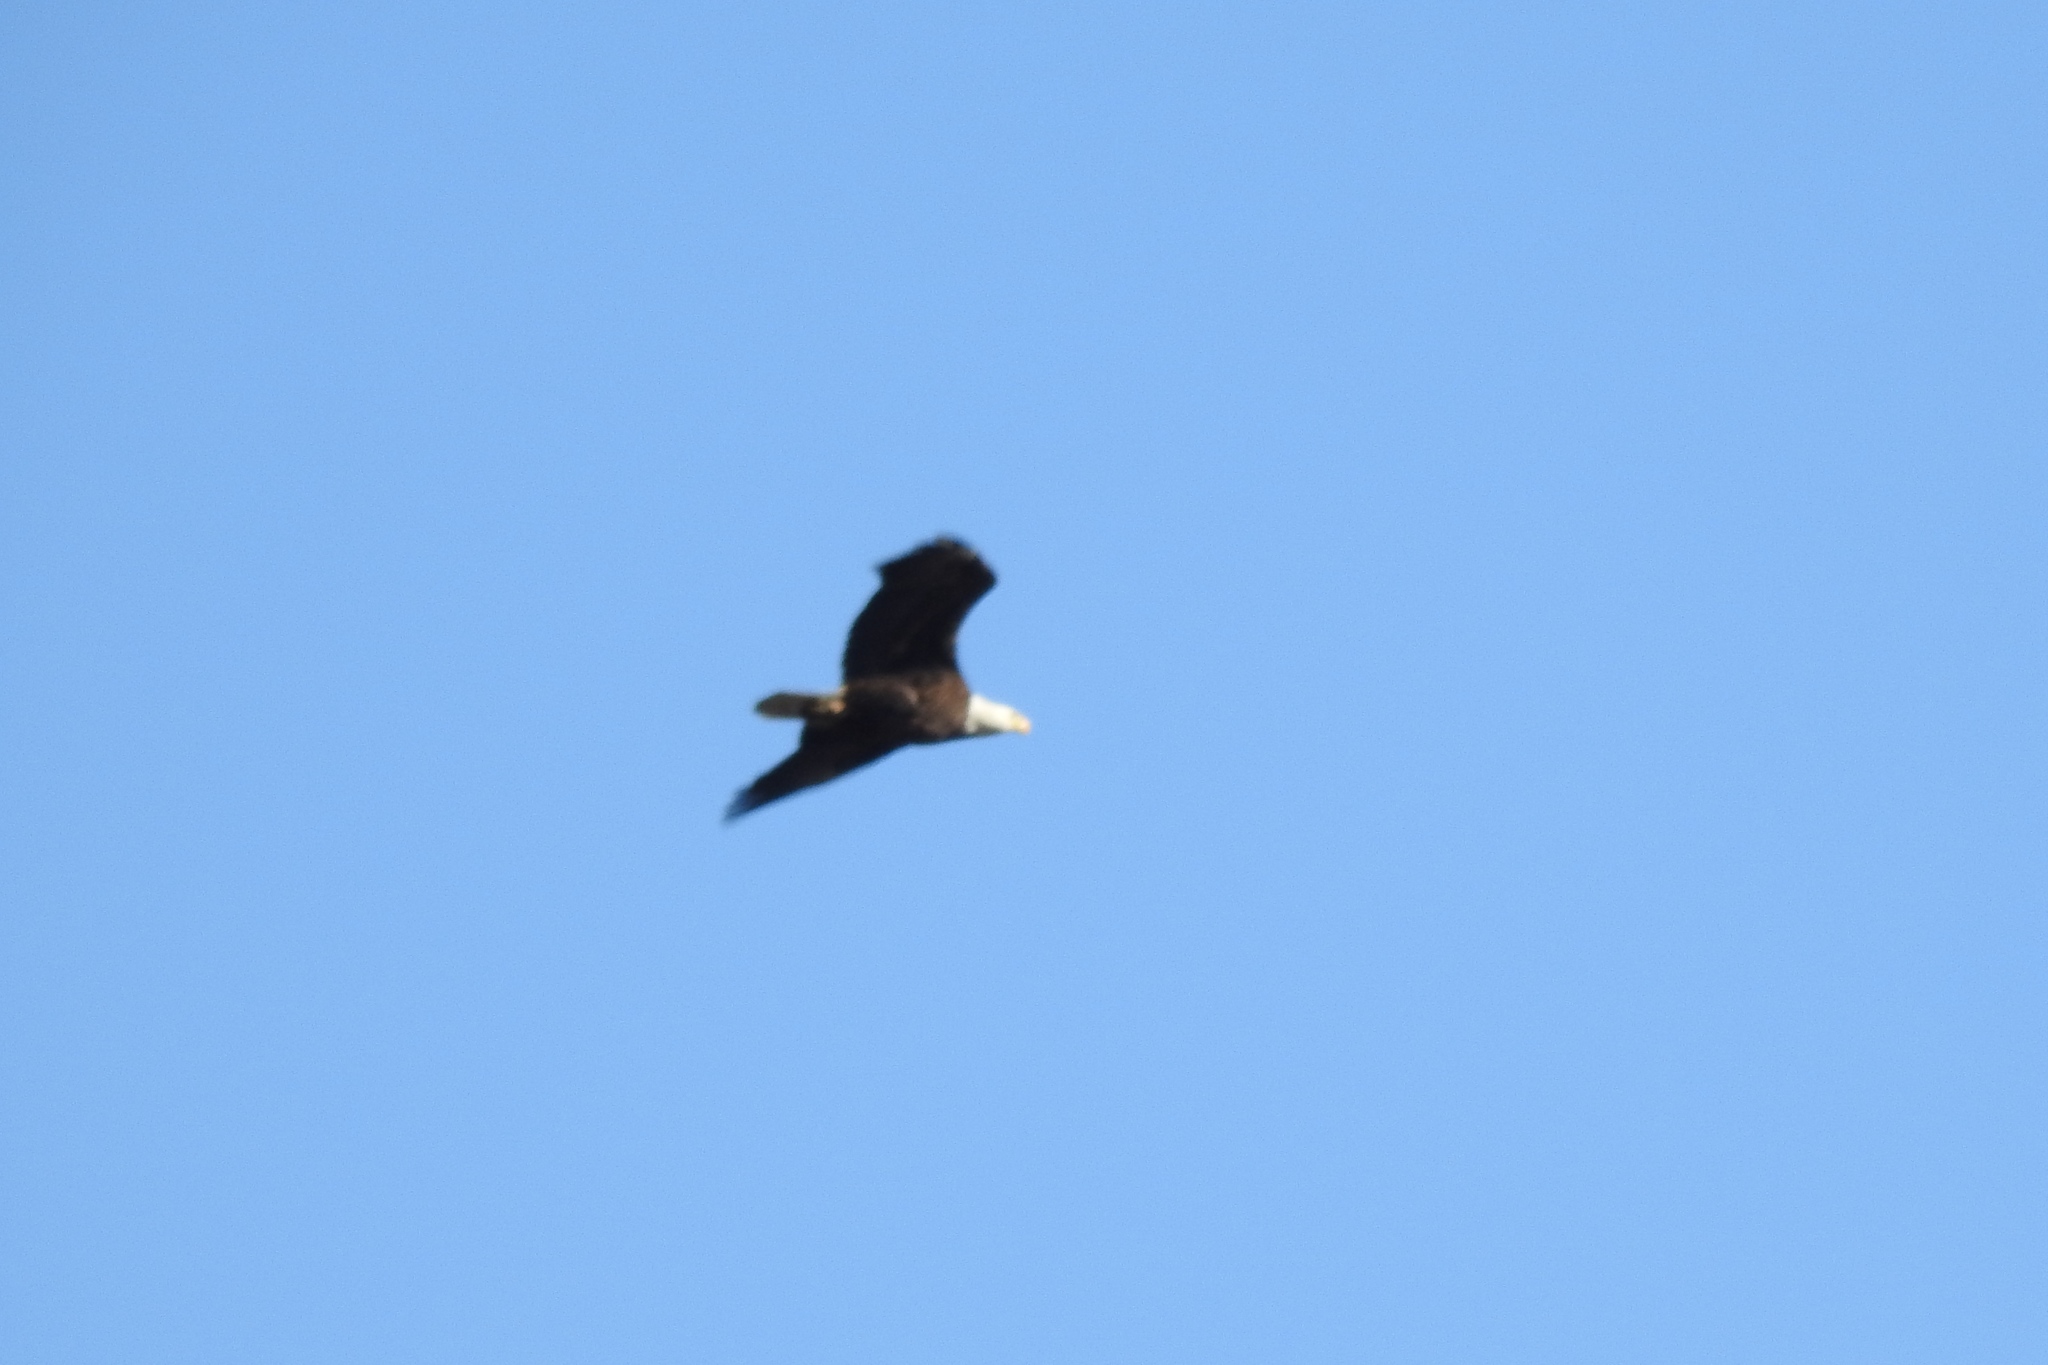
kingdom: Animalia
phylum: Chordata
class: Aves
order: Accipitriformes
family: Accipitridae
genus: Haliaeetus
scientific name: Haliaeetus leucocephalus
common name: Bald eagle
